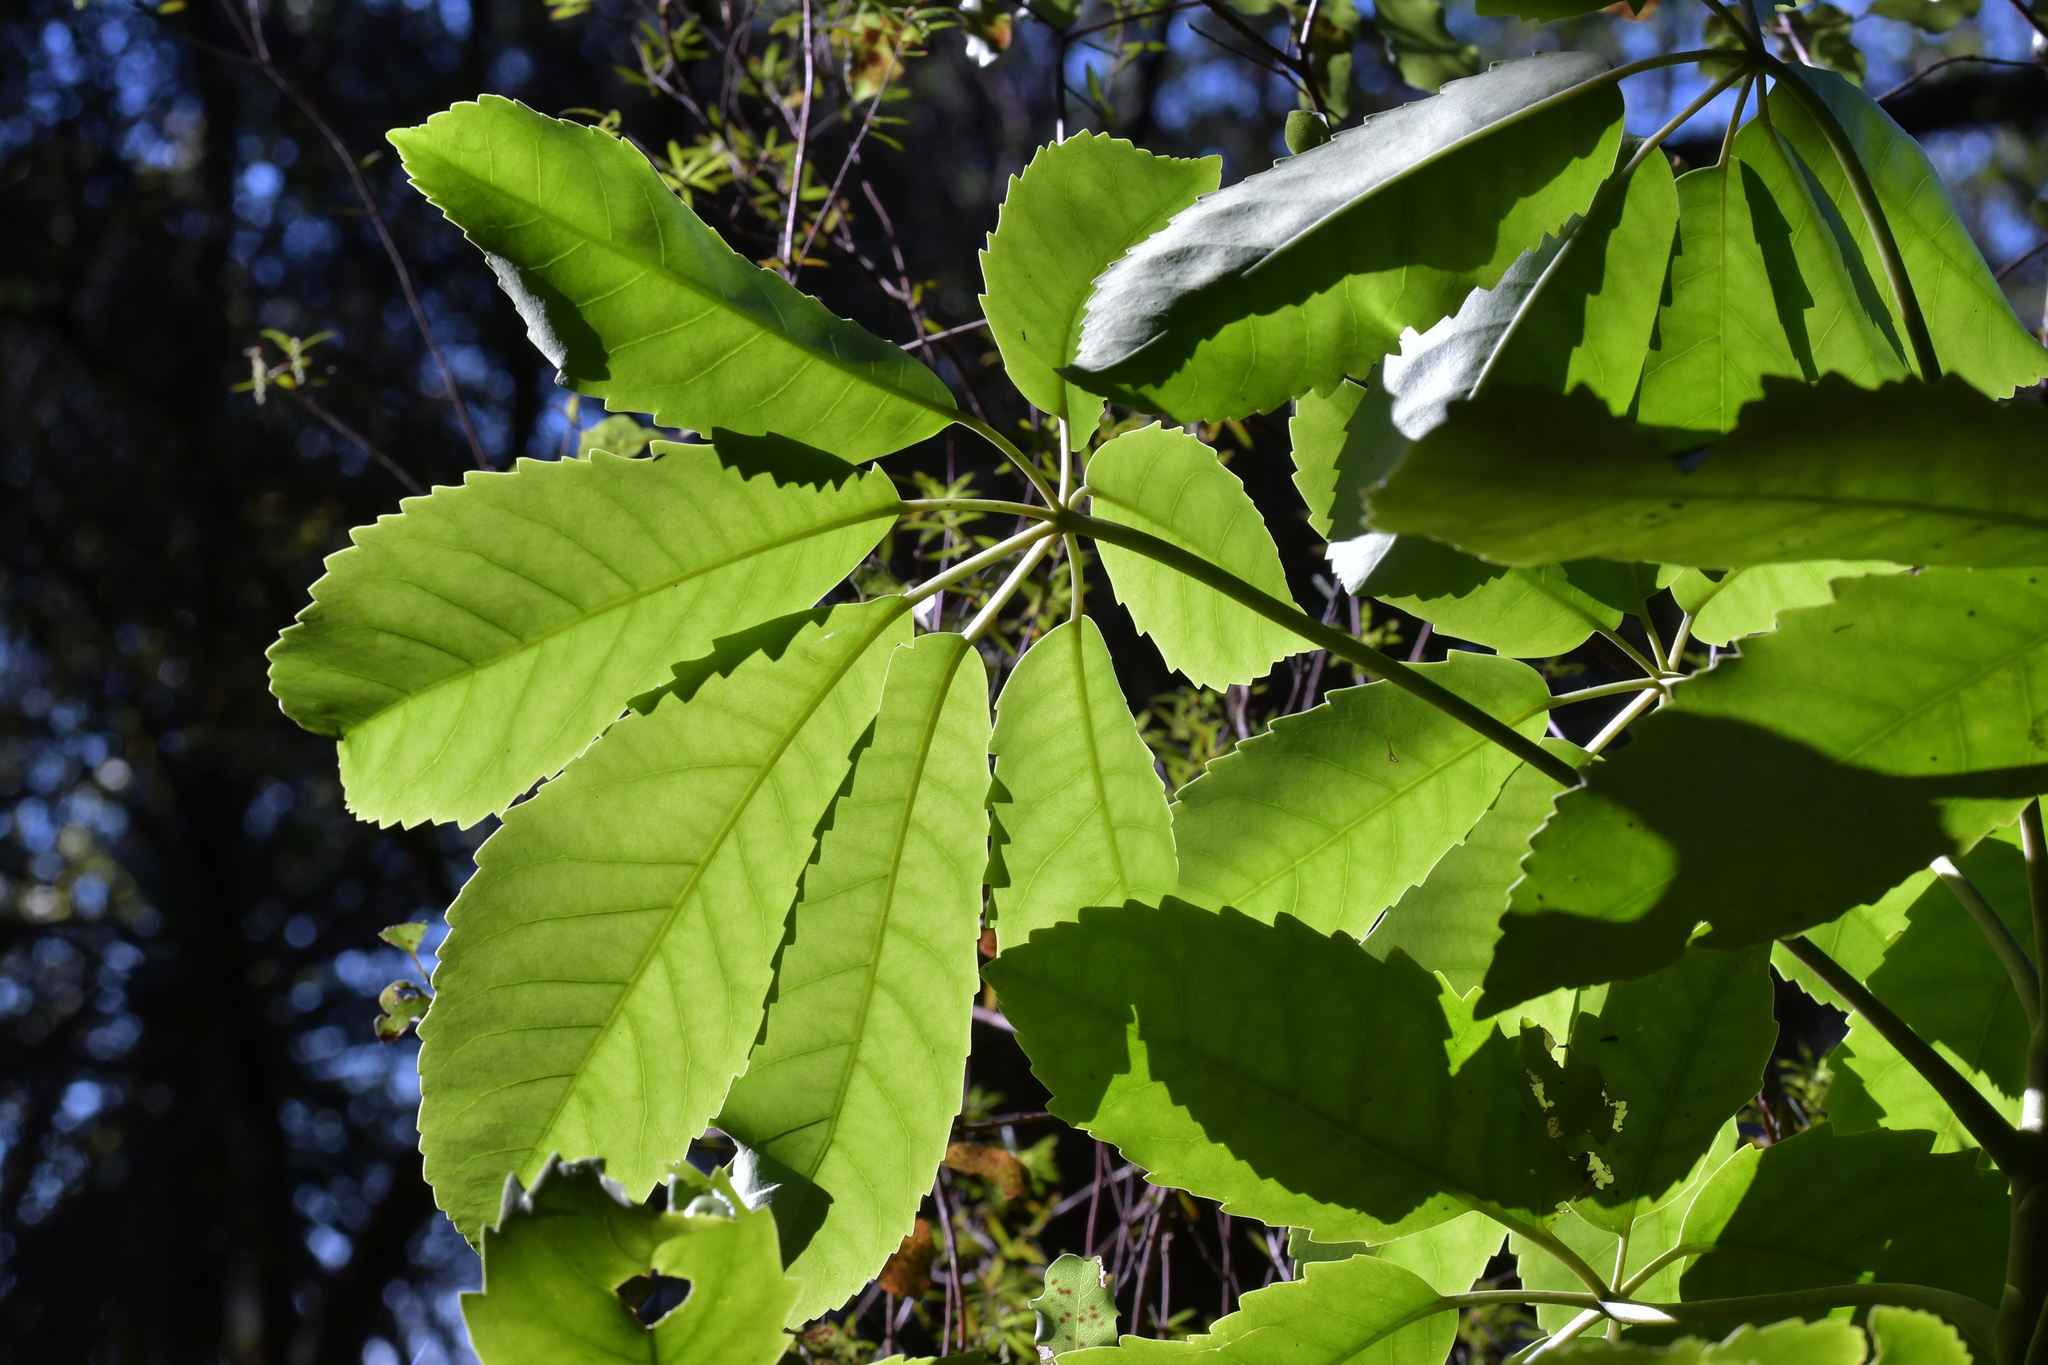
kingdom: Plantae
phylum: Tracheophyta
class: Magnoliopsida
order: Apiales
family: Araliaceae
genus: Neopanax
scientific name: Neopanax arboreus
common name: Five-fingers
